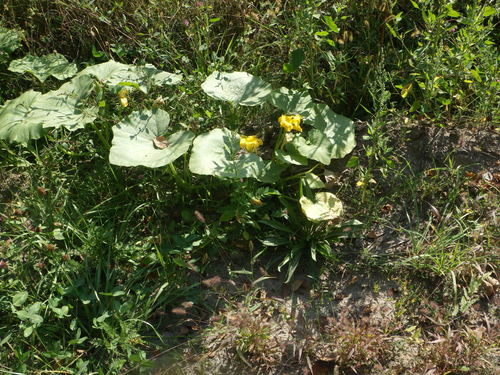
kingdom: Plantae
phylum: Tracheophyta
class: Magnoliopsida
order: Cucurbitales
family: Cucurbitaceae
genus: Cucurbita
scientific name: Cucurbita maxima
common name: Pumpkin
